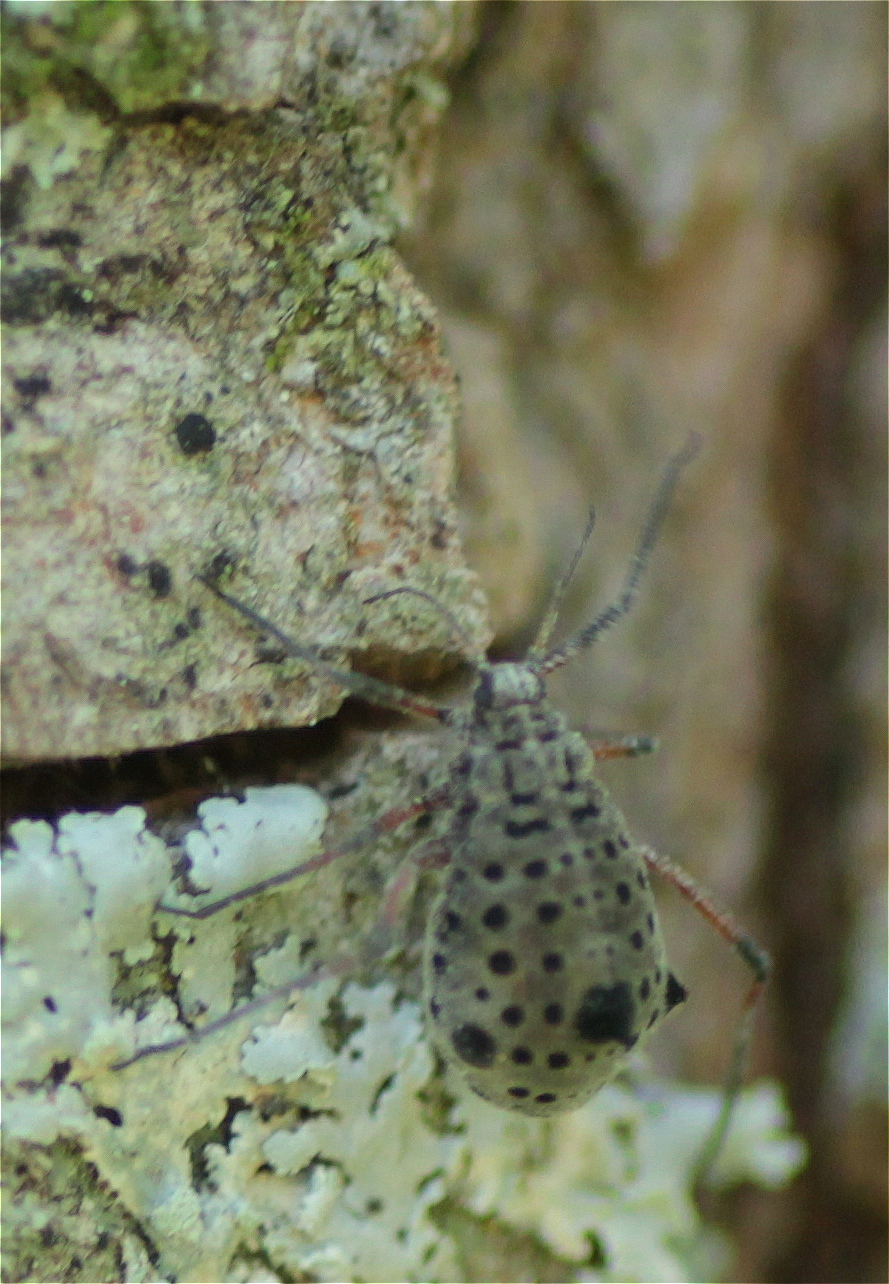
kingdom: Animalia
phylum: Arthropoda
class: Insecta
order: Hemiptera
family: Aphididae
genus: Tuberolachnus
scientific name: Tuberolachnus salignus
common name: Giant willow aphid
